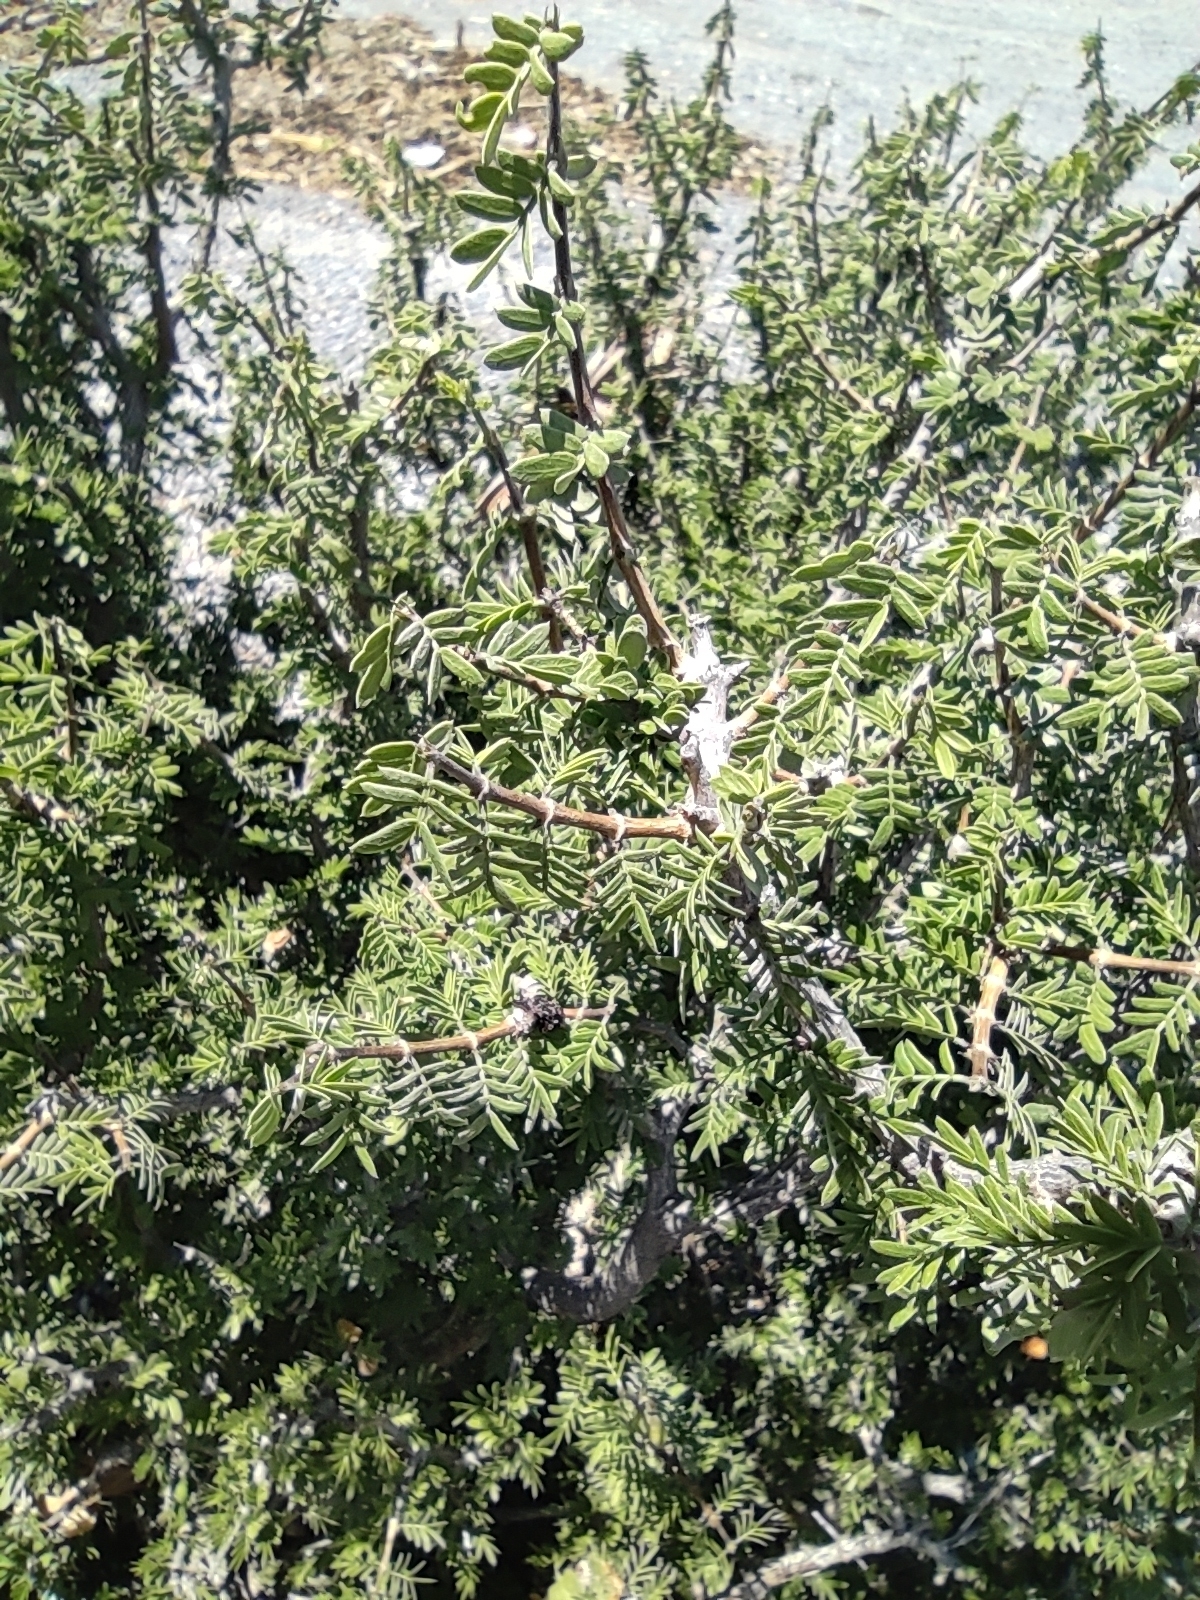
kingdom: Plantae
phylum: Tracheophyta
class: Magnoliopsida
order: Zygophyllales
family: Zygophyllaceae
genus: Porlieria
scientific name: Porlieria angustifolia
